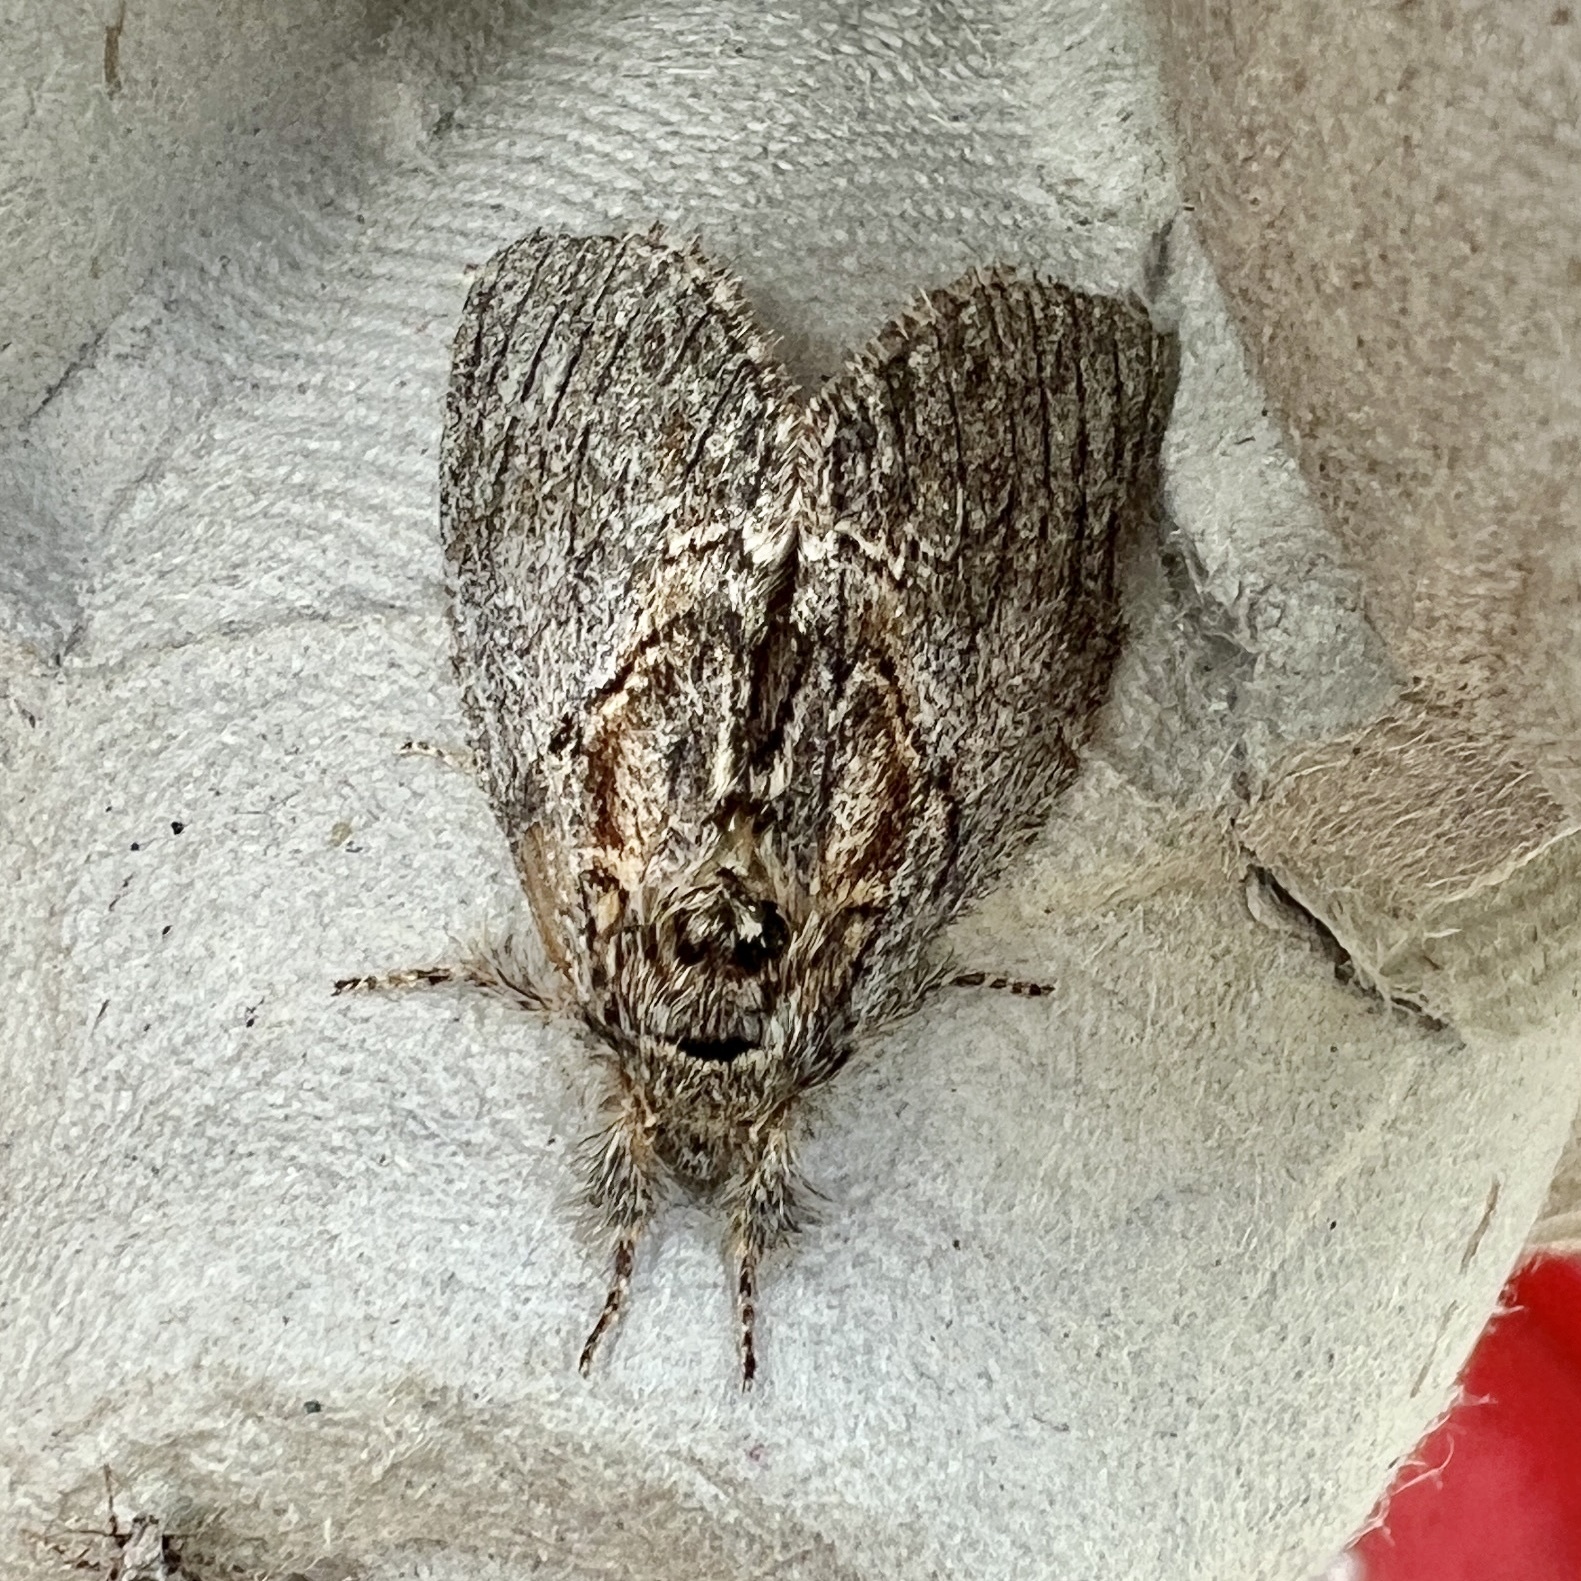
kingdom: Animalia
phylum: Arthropoda
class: Insecta
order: Lepidoptera
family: Notodontidae
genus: Peridea
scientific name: Peridea basitriens
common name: Oval-based prominent
